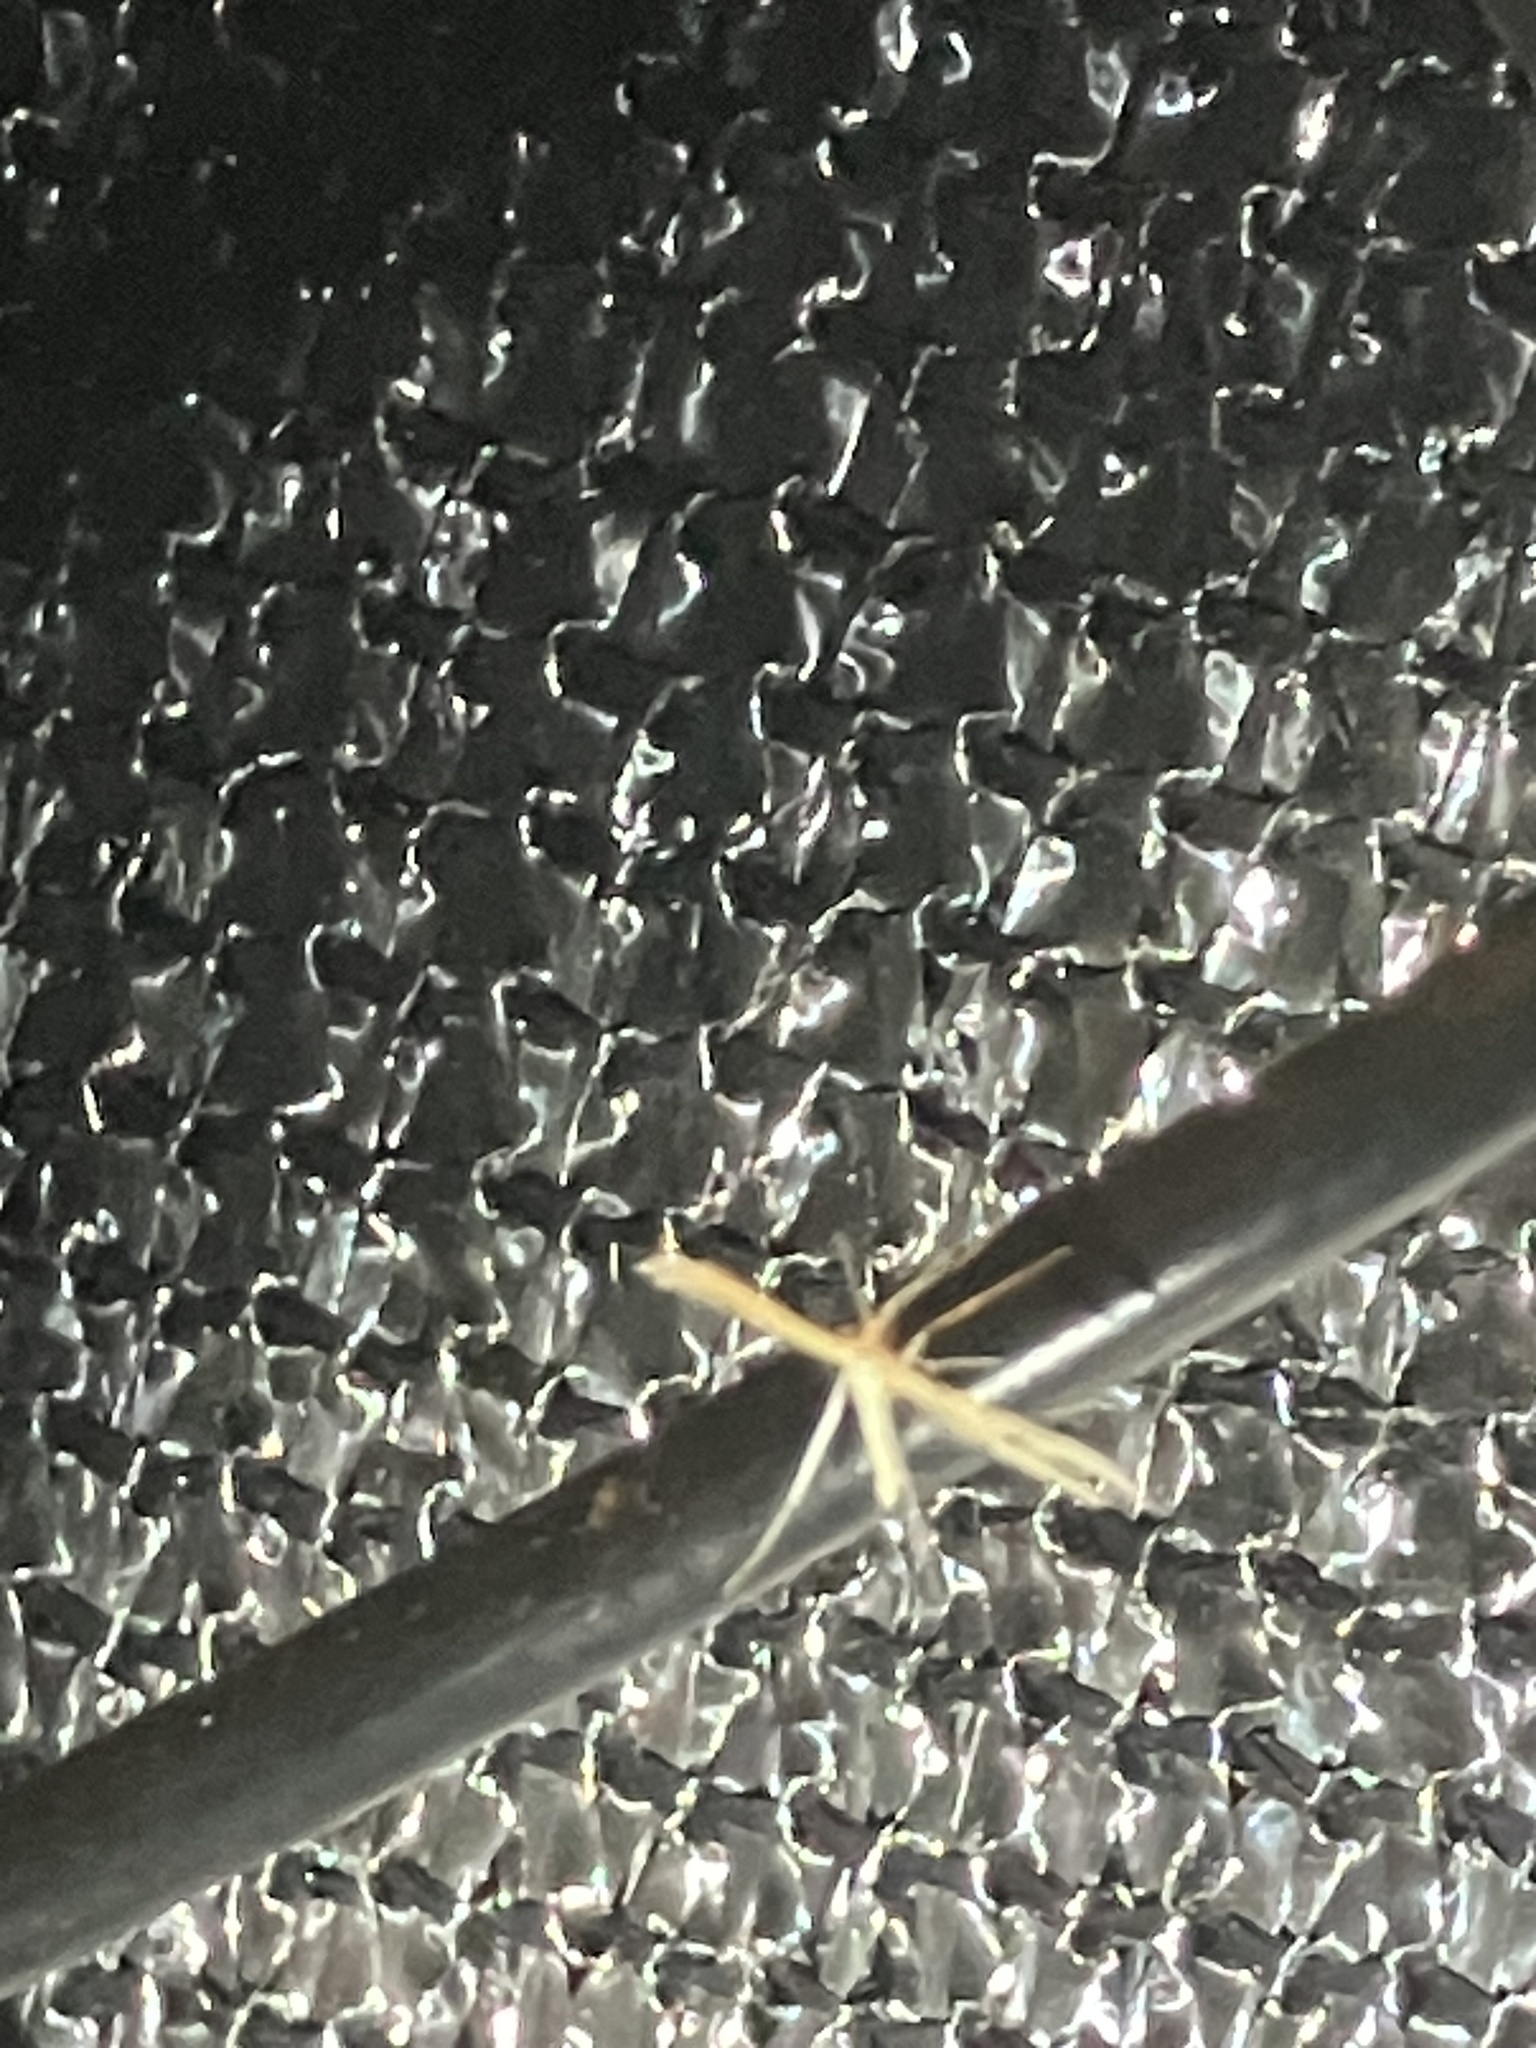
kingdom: Animalia
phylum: Arthropoda
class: Insecta
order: Lepidoptera
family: Pterophoridae
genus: Hellinsia
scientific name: Hellinsia
